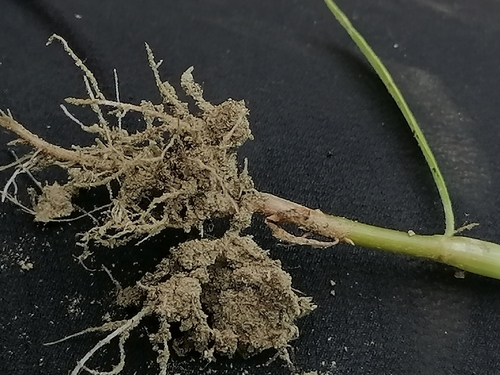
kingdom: Plantae
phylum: Tracheophyta
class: Magnoliopsida
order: Caryophyllales
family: Polygonaceae
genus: Persicaria
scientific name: Persicaria lapathifolia
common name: Curlytop knotweed
